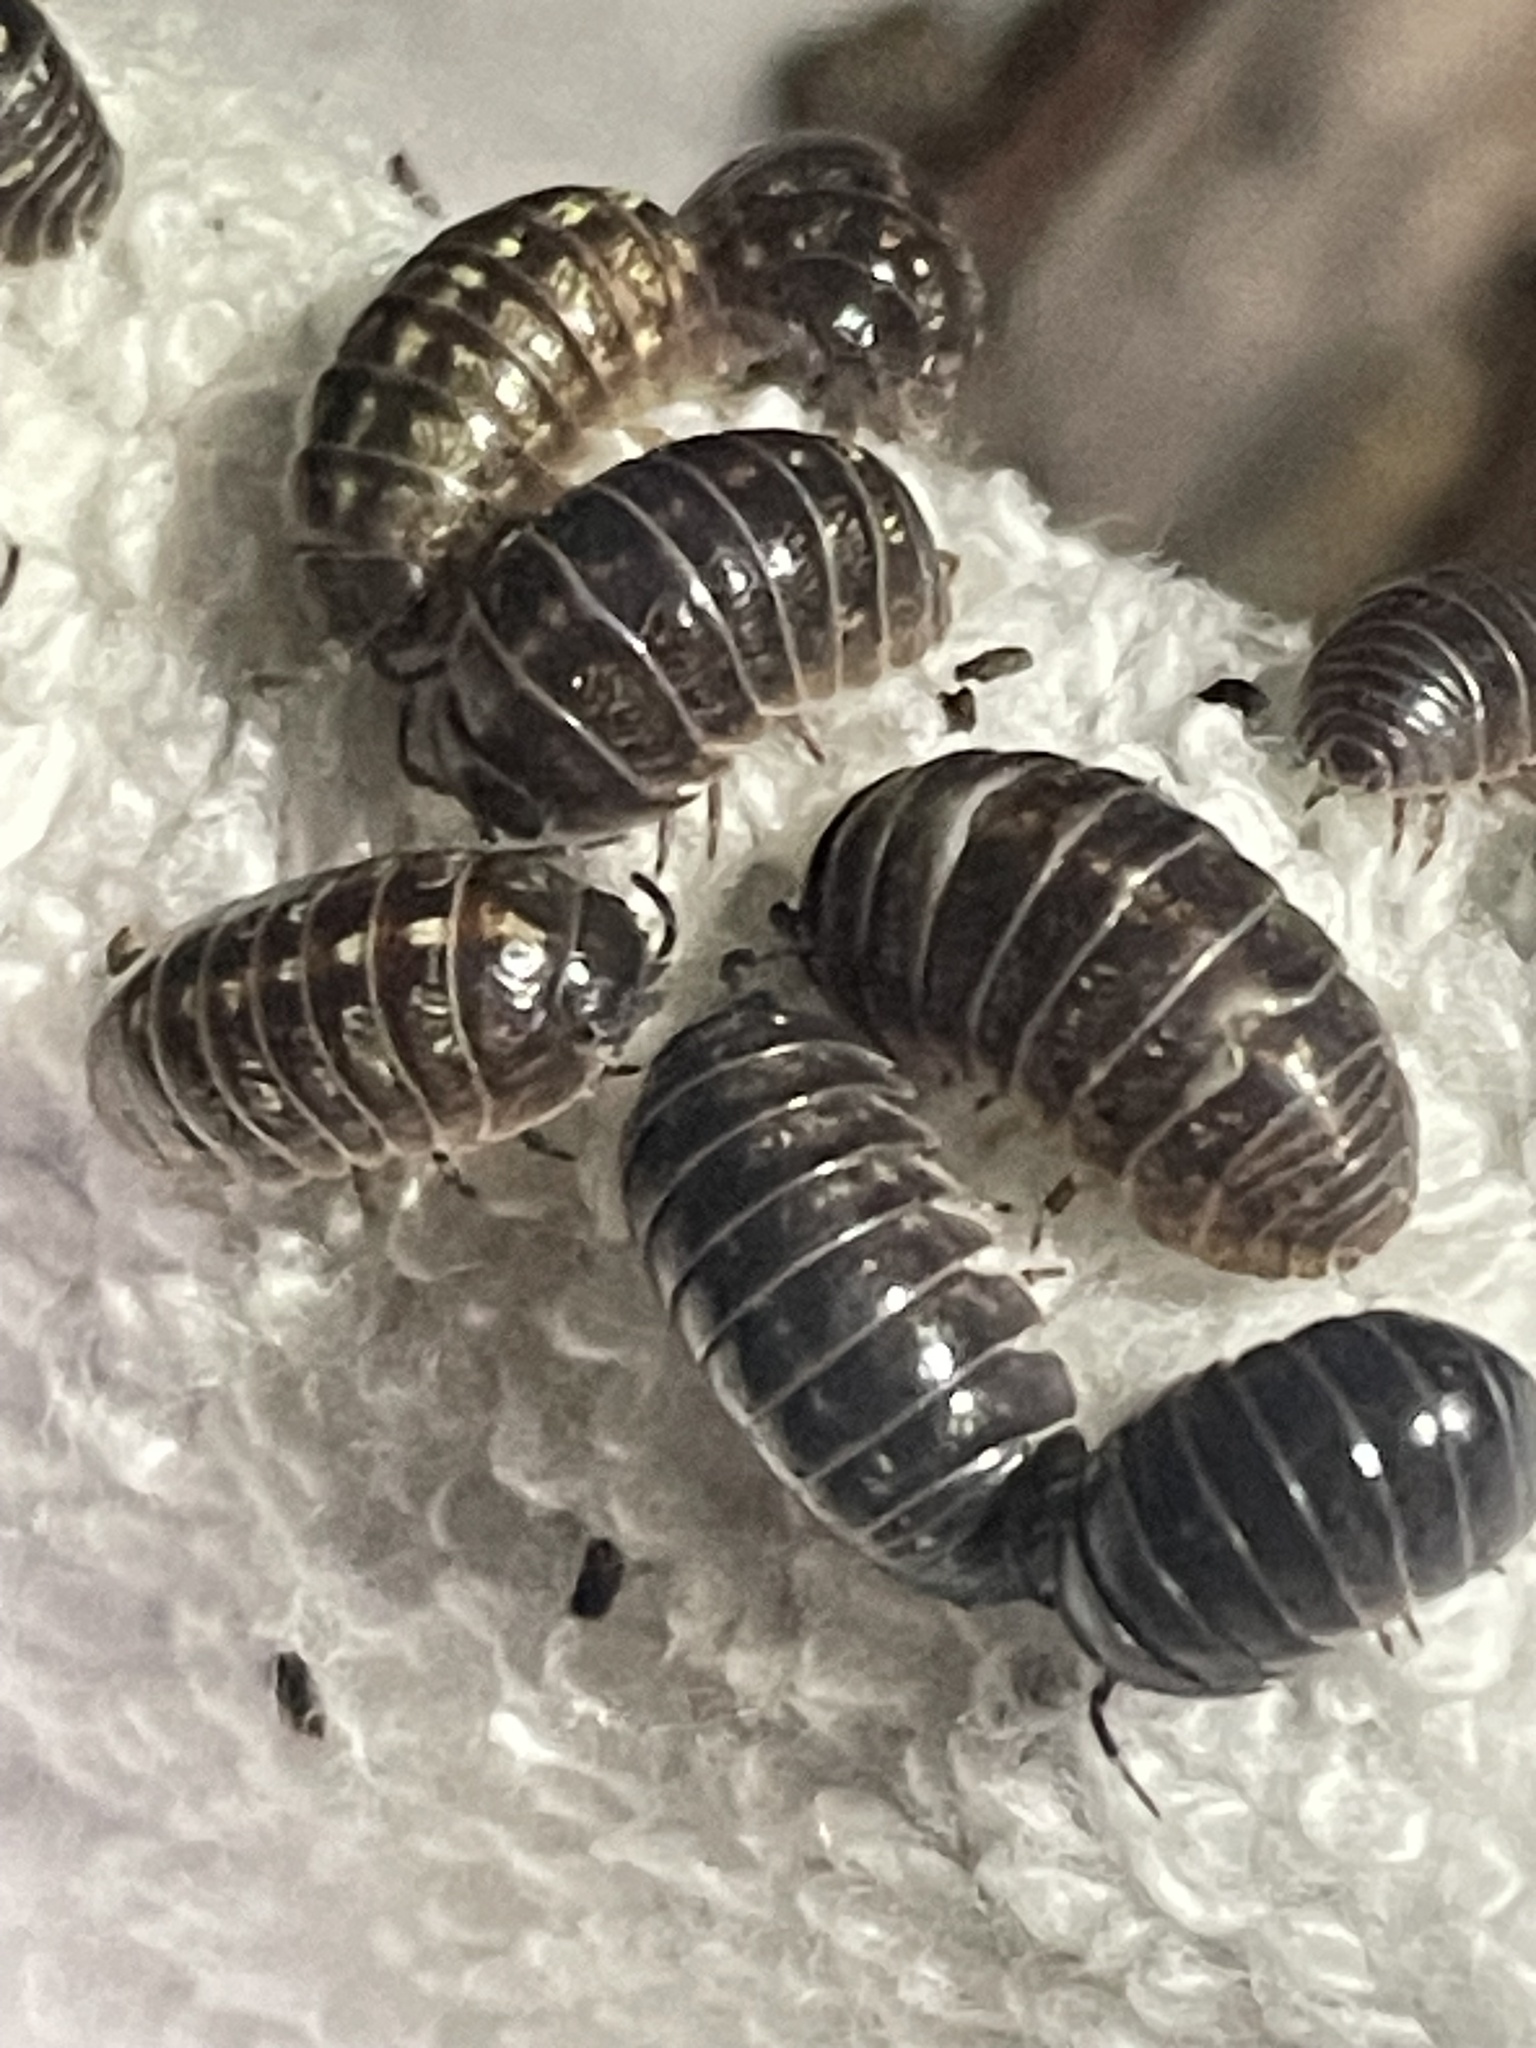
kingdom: Animalia
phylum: Arthropoda
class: Malacostraca
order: Isopoda
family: Armadillidiidae
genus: Armadillidium
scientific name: Armadillidium vulgare
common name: Common pill woodlouse
